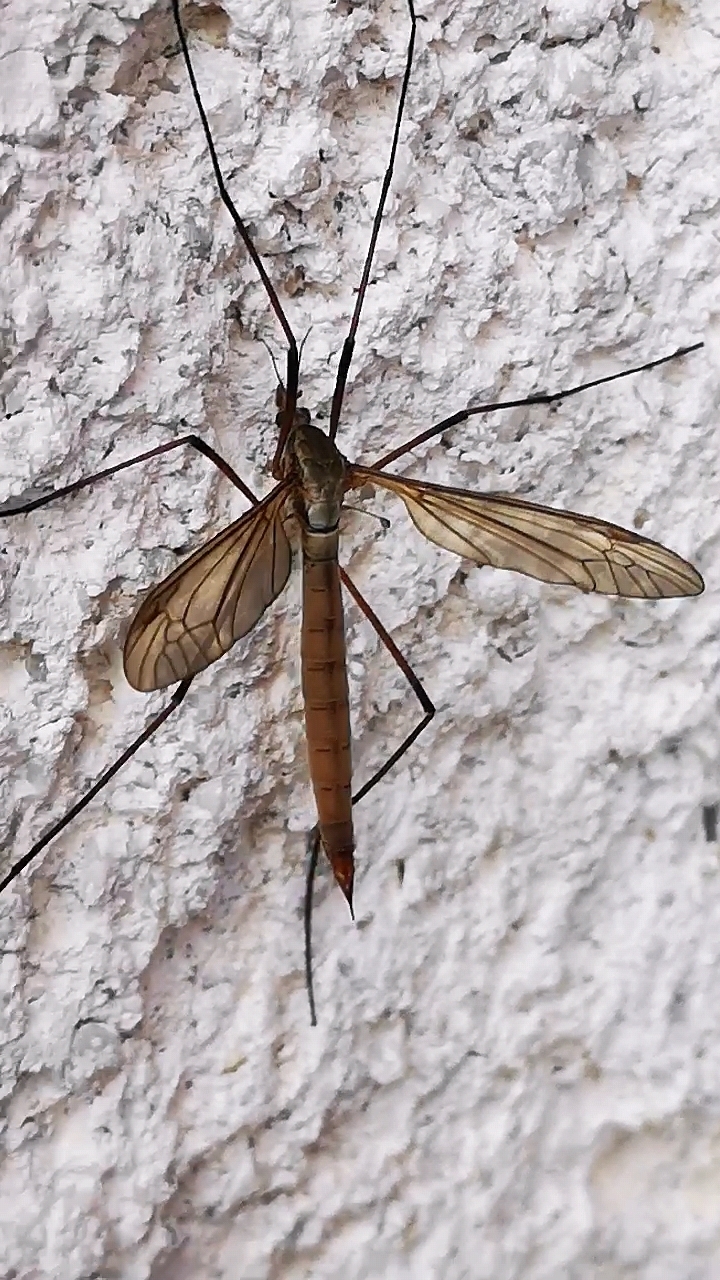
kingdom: Animalia
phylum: Arthropoda
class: Insecta
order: Diptera
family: Tipulidae
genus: Tipula
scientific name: Tipula paludosa
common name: European cranefly
